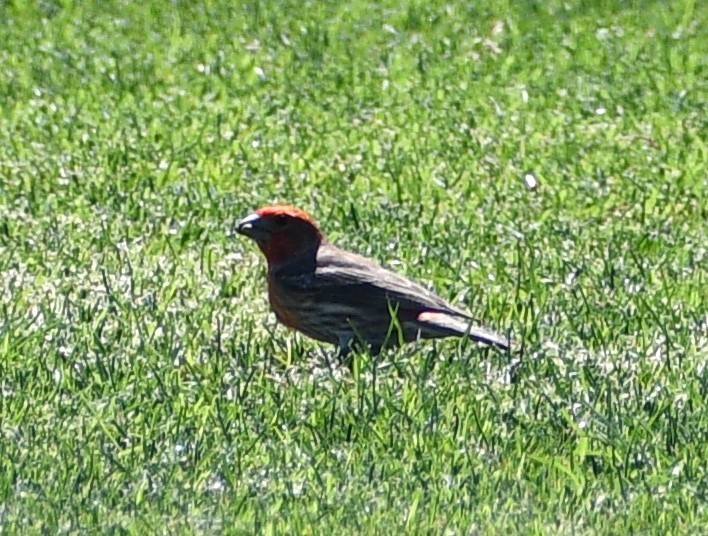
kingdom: Animalia
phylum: Chordata
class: Aves
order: Passeriformes
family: Fringillidae
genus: Haemorhous
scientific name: Haemorhous mexicanus
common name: House finch
